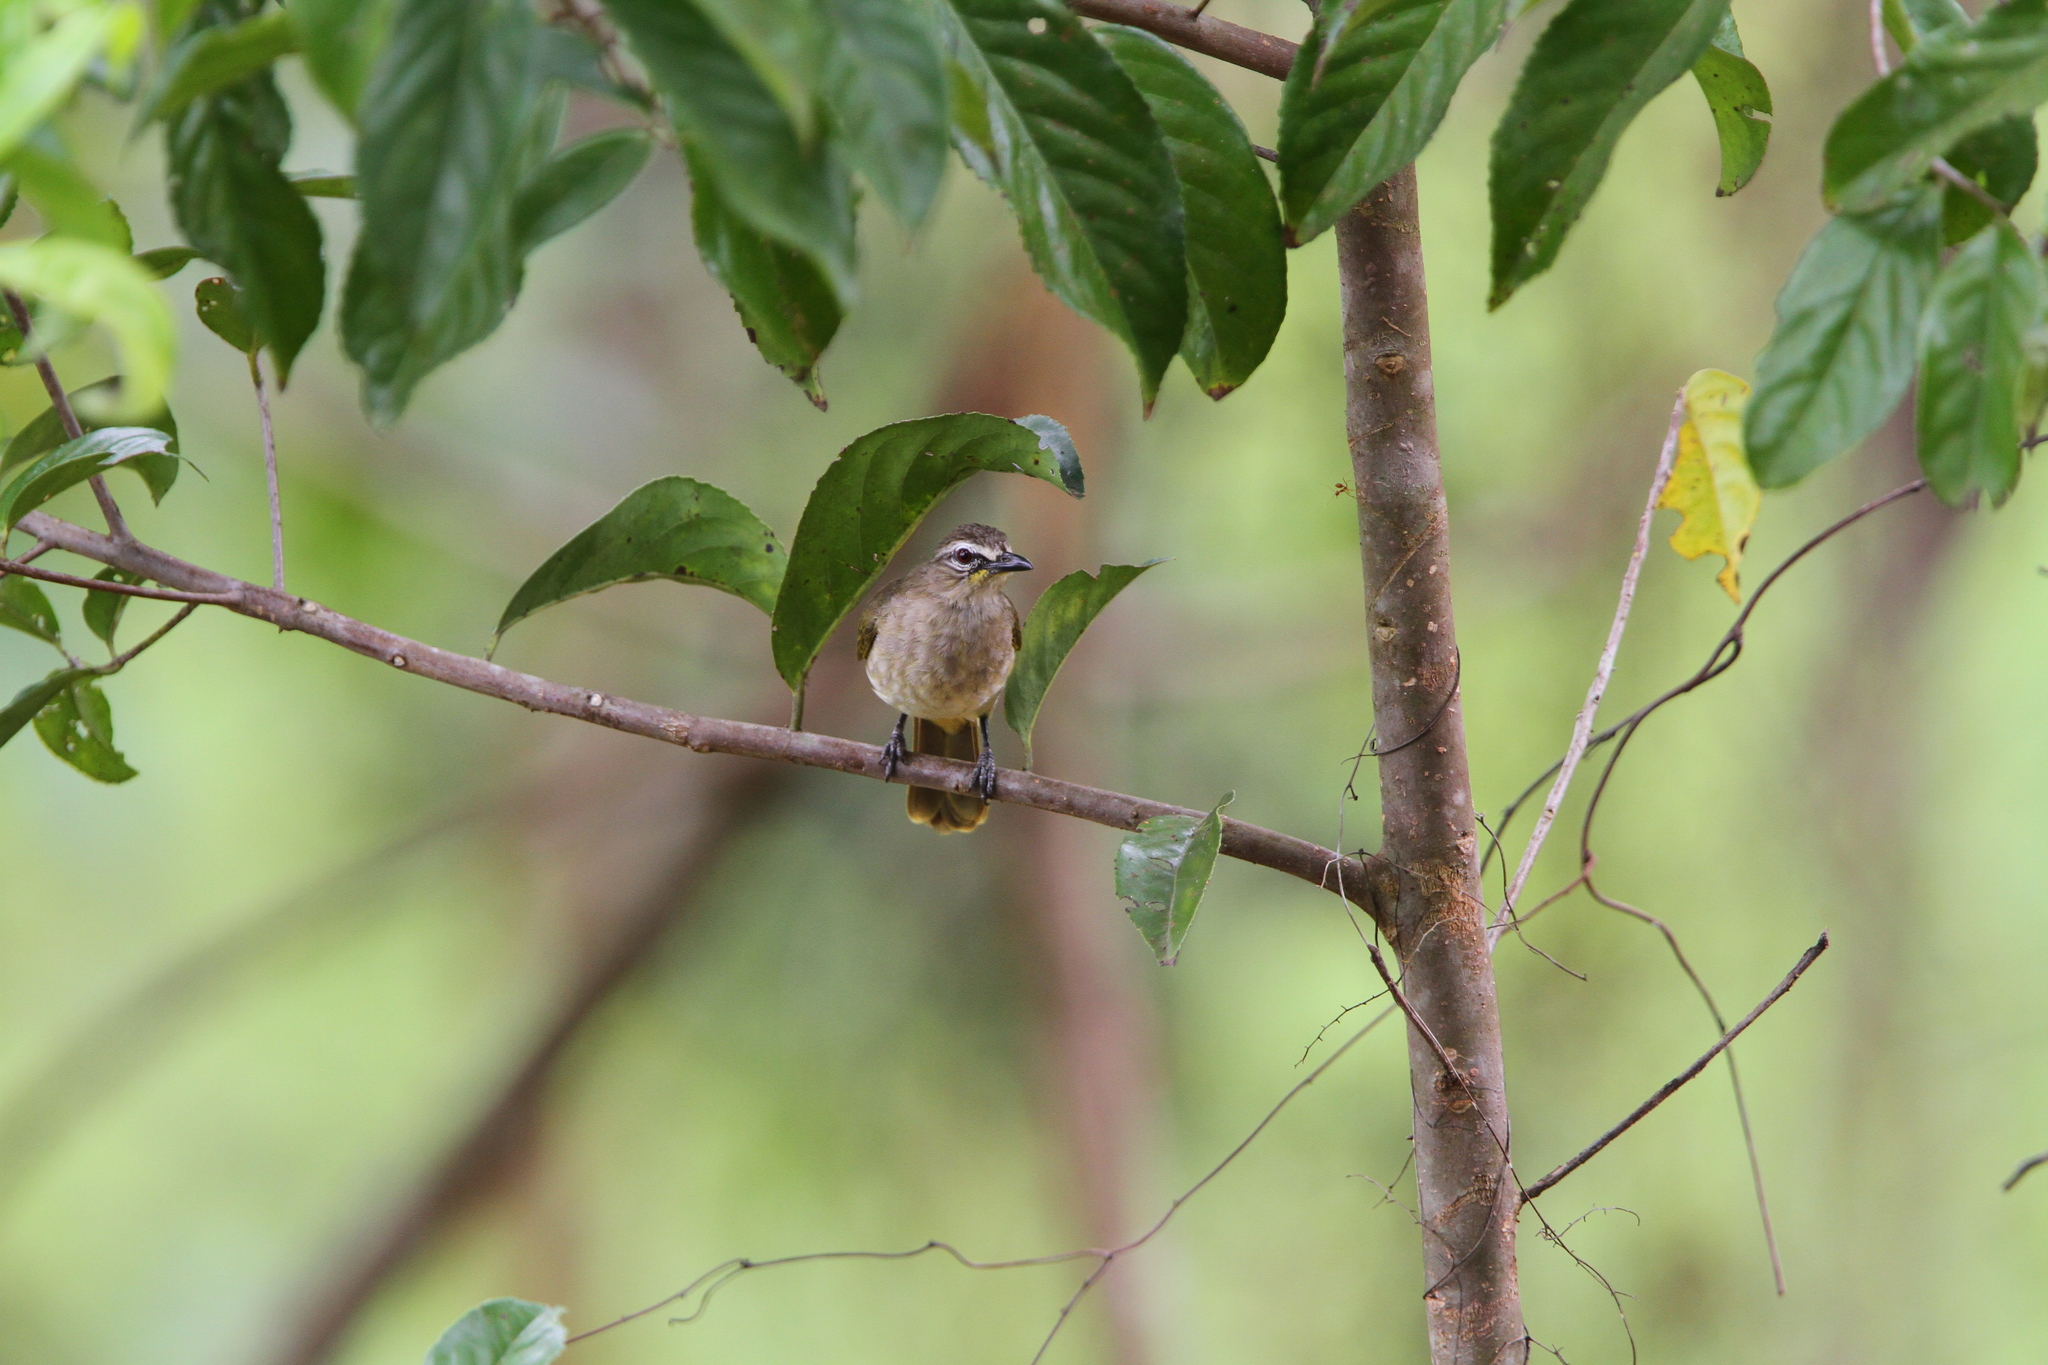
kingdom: Animalia
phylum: Chordata
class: Aves
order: Passeriformes
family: Pycnonotidae
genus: Pycnonotus
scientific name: Pycnonotus luteolus
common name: White-browed bulbul
